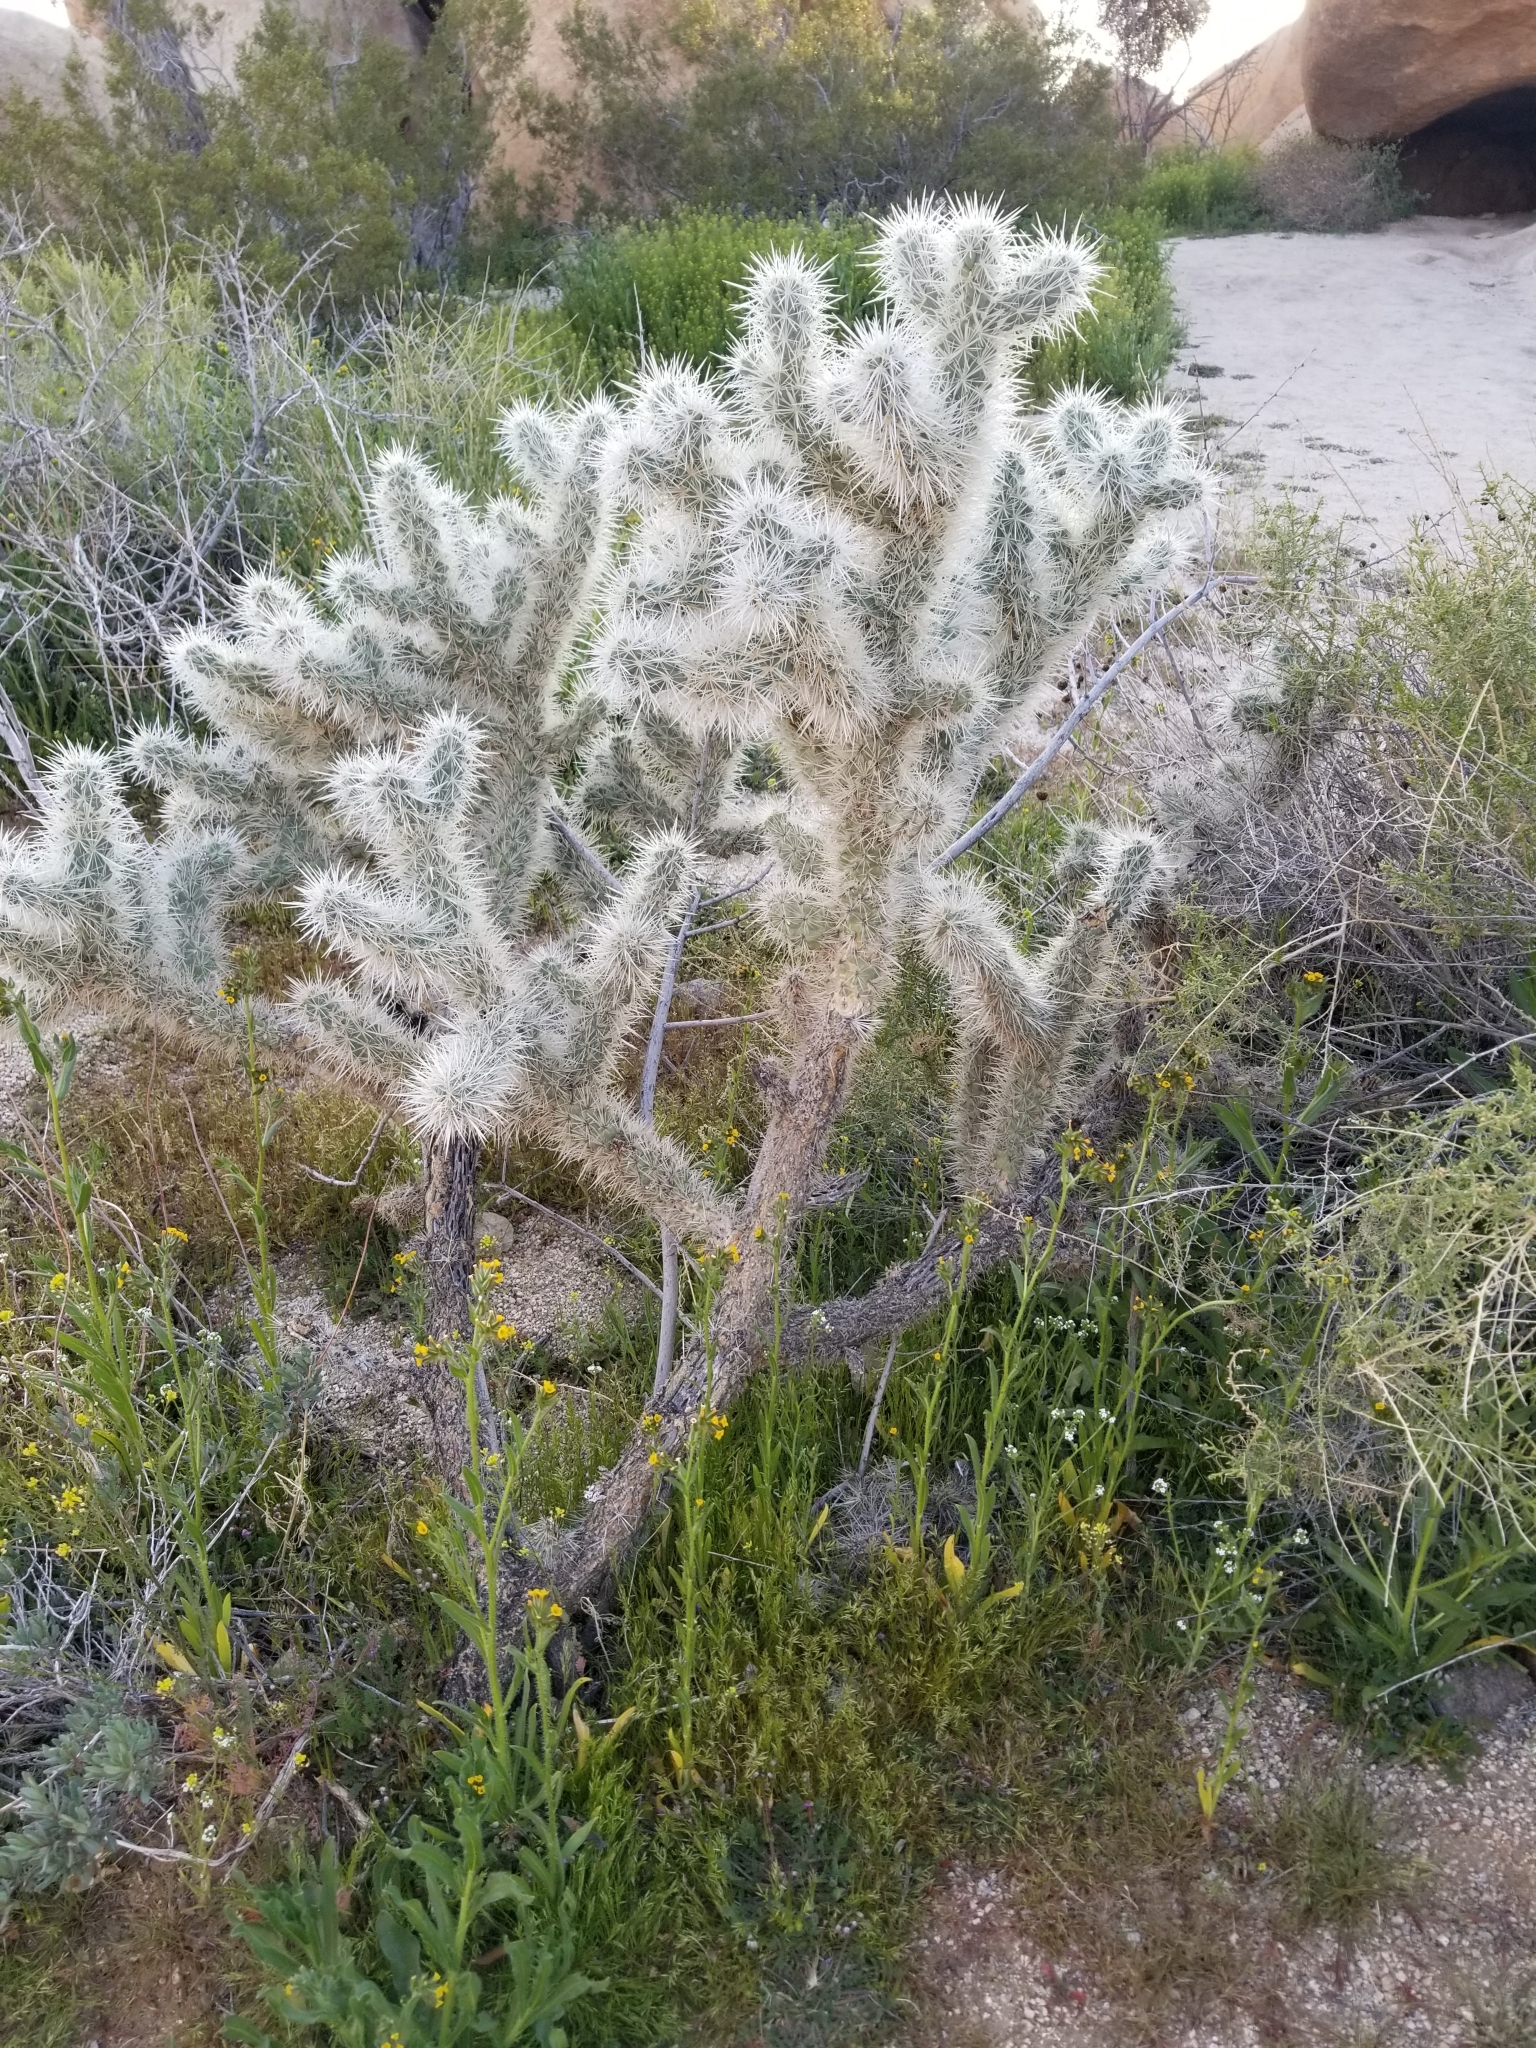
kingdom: Plantae
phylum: Tracheophyta
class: Magnoliopsida
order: Caryophyllales
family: Cactaceae
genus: Cylindropuntia
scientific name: Cylindropuntia echinocarpa
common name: Ground cholla
